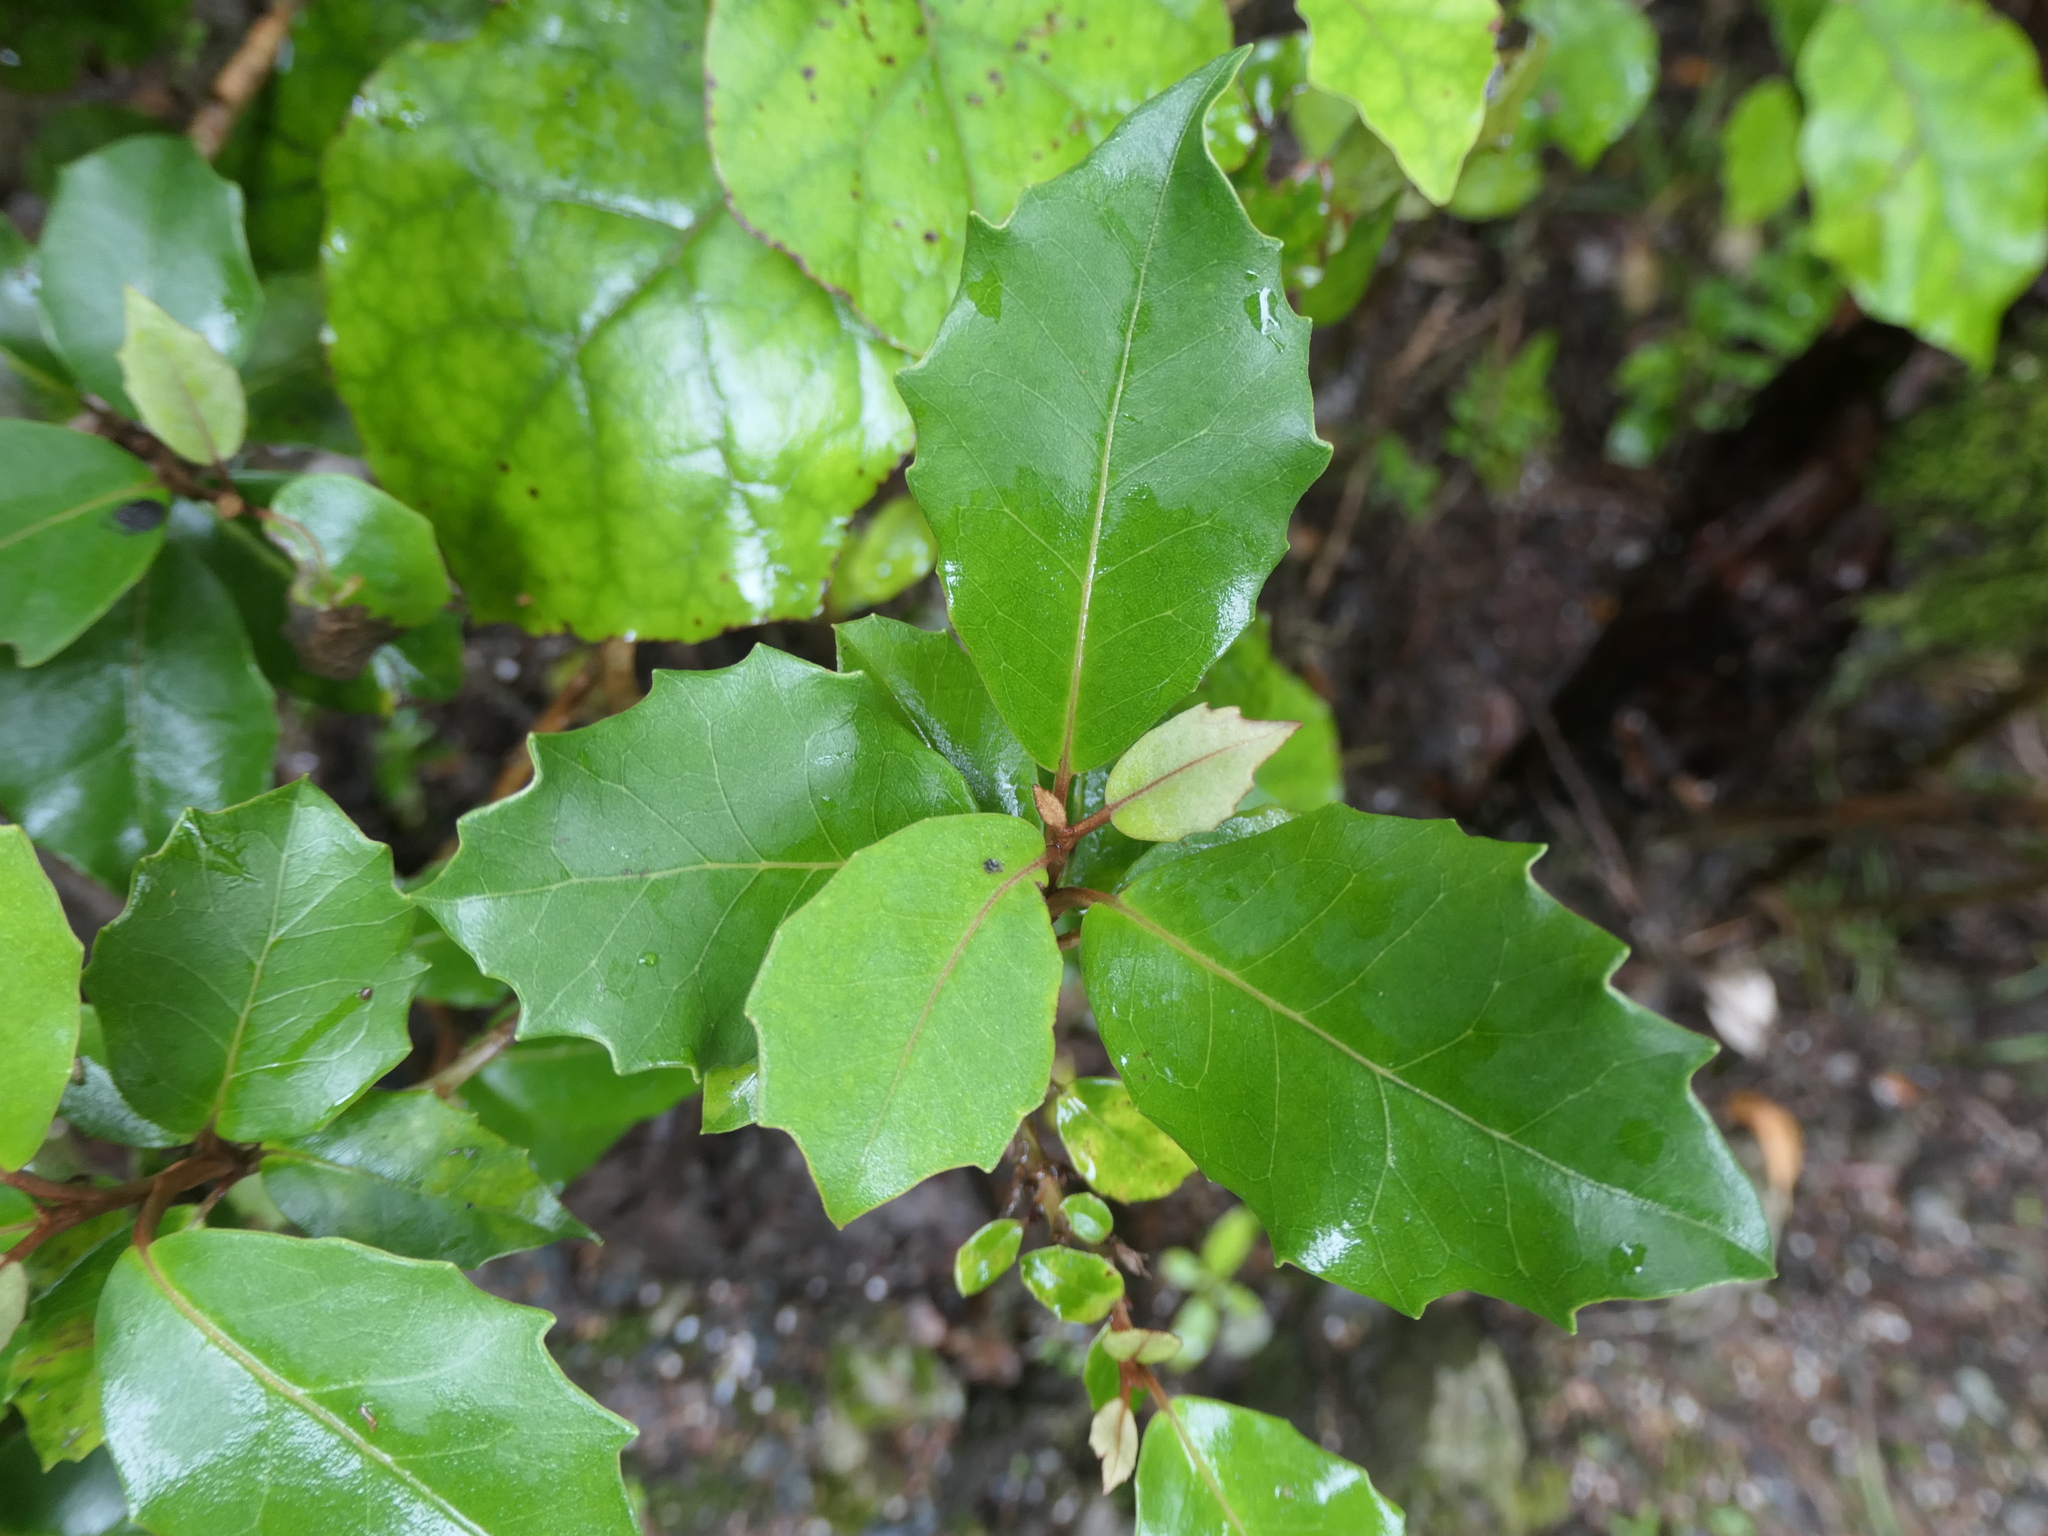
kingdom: Plantae
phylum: Tracheophyta
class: Magnoliopsida
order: Asterales
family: Asteraceae
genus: Olearia
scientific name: Olearia arborescens
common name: Glossy tree daisy
